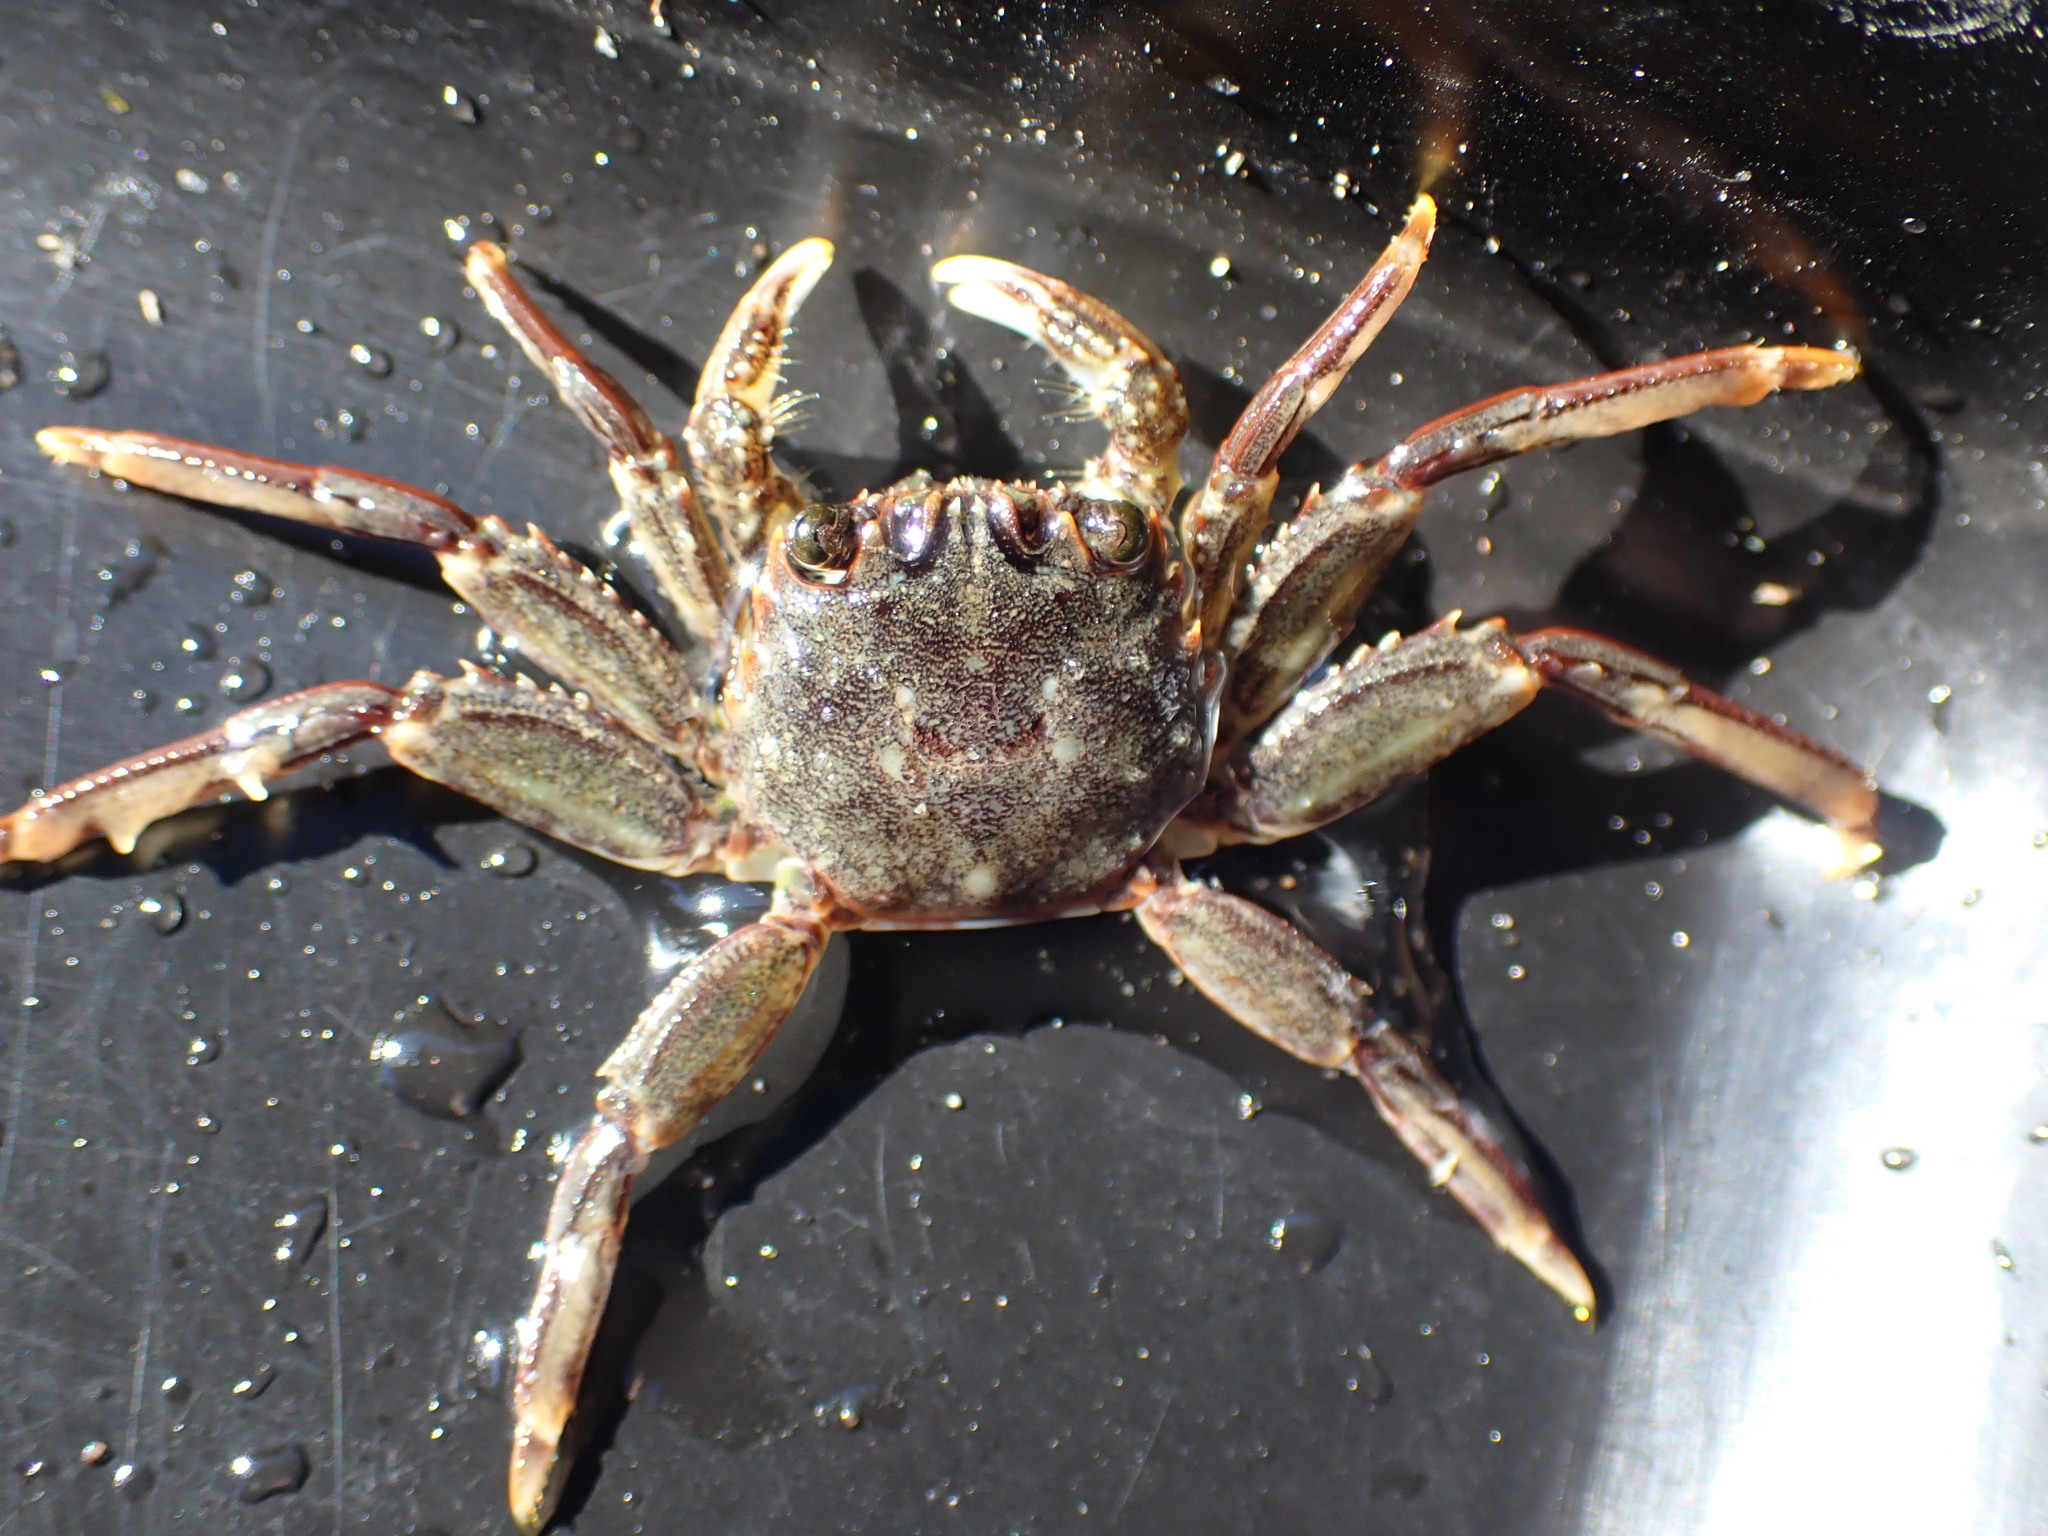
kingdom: Animalia
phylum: Arthropoda
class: Malacostraca
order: Decapoda
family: Plagusiidae
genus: Guinusia
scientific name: Guinusia chabrus
